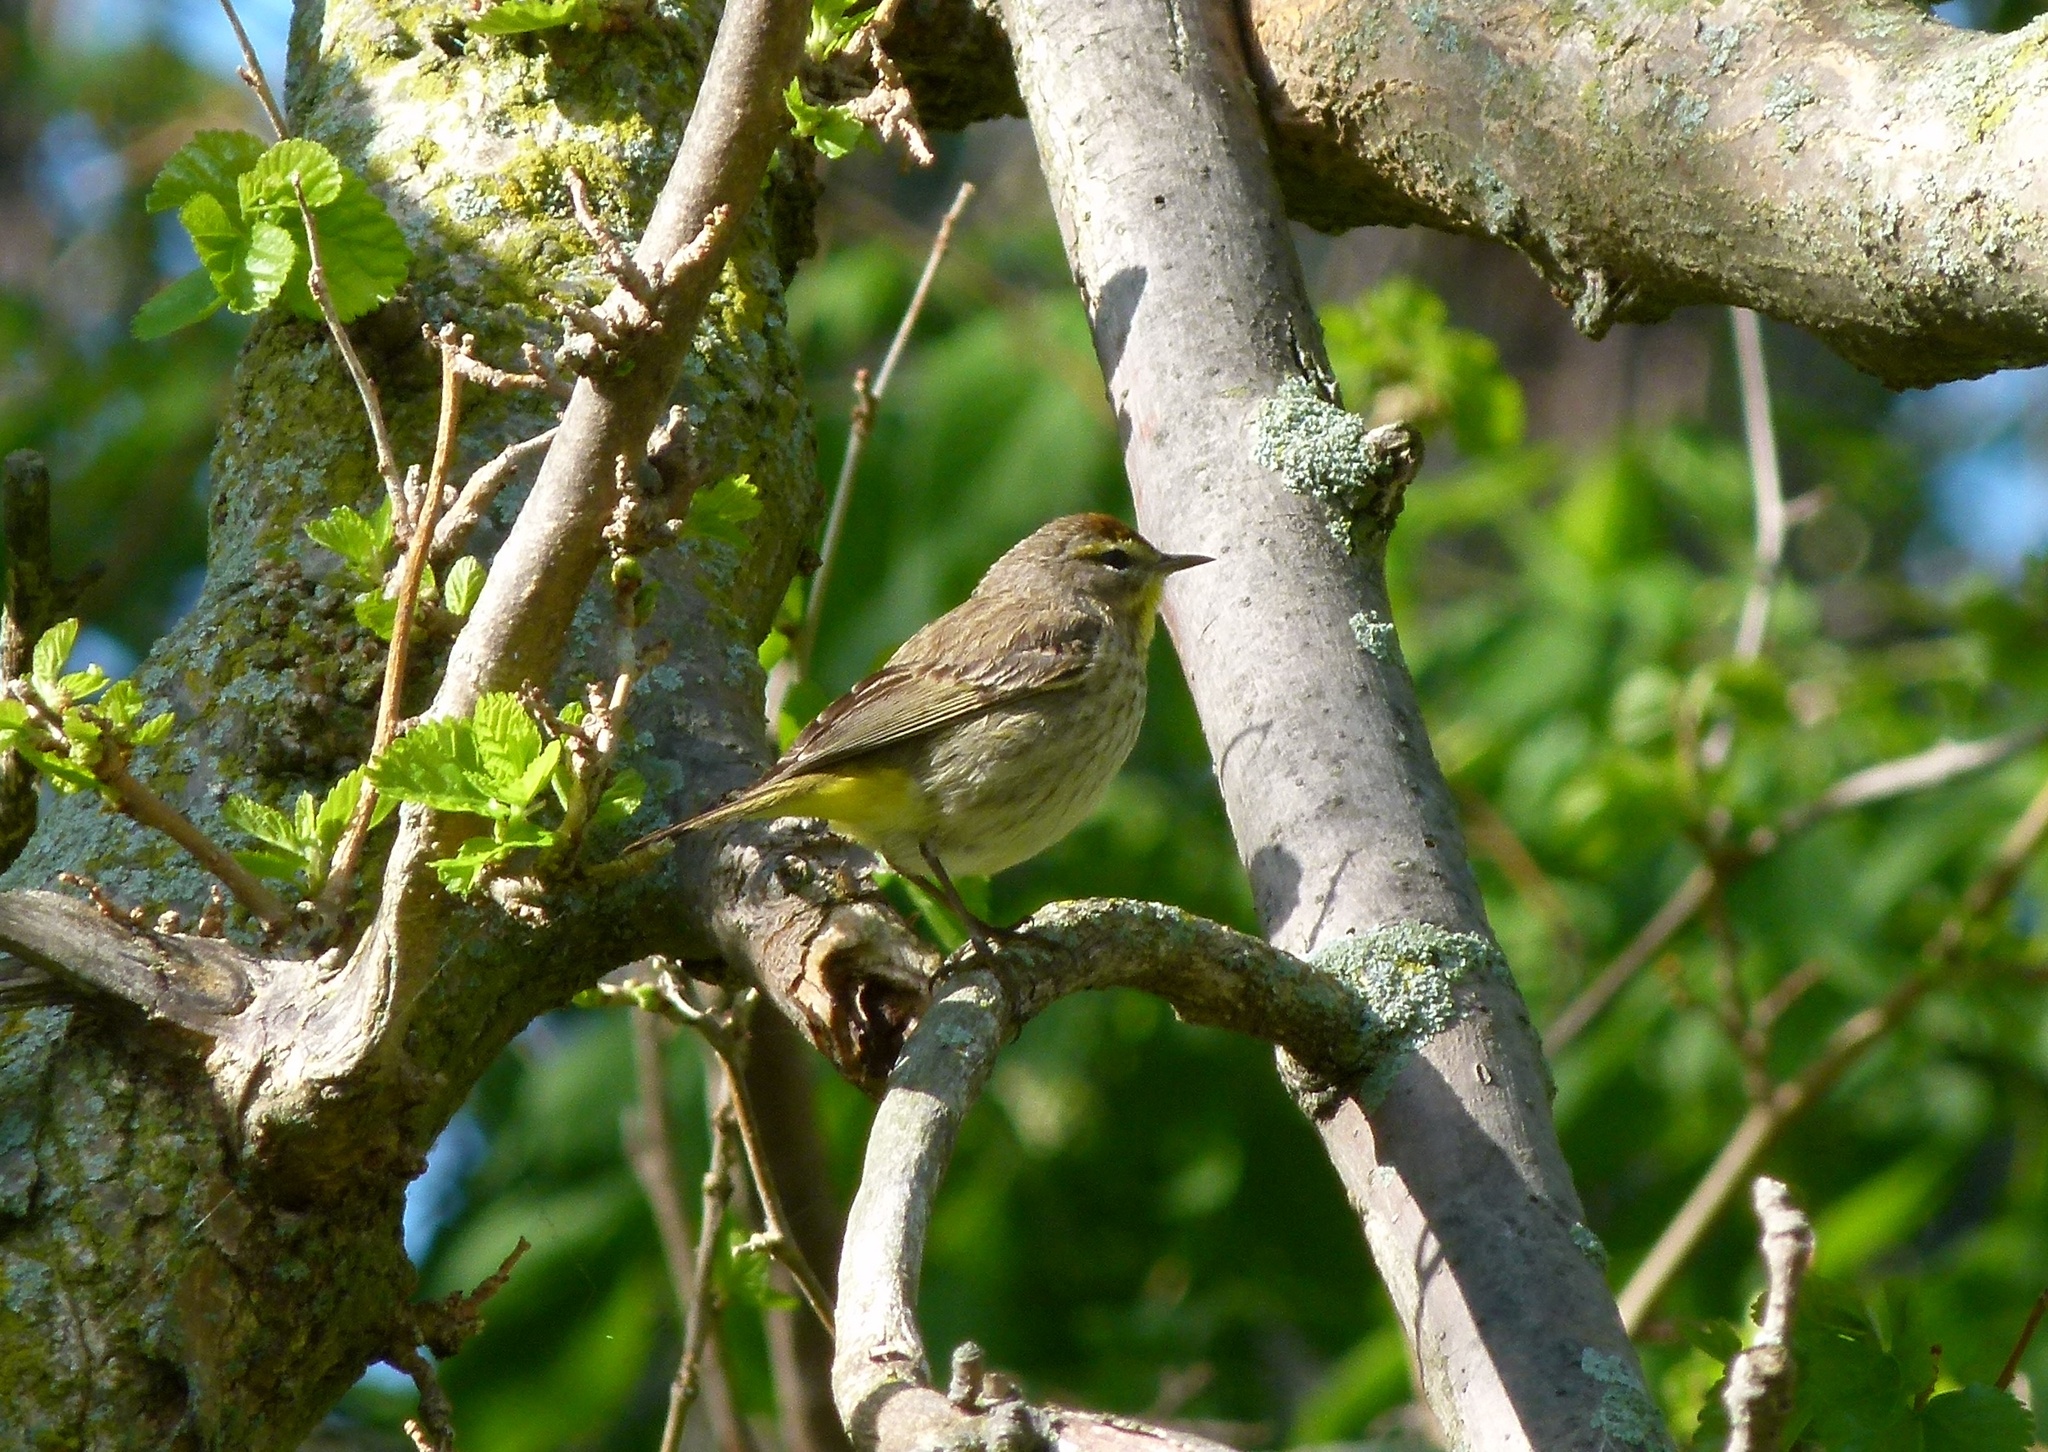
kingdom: Animalia
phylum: Chordata
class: Aves
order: Passeriformes
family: Parulidae
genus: Setophaga
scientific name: Setophaga palmarum
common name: Palm warbler
